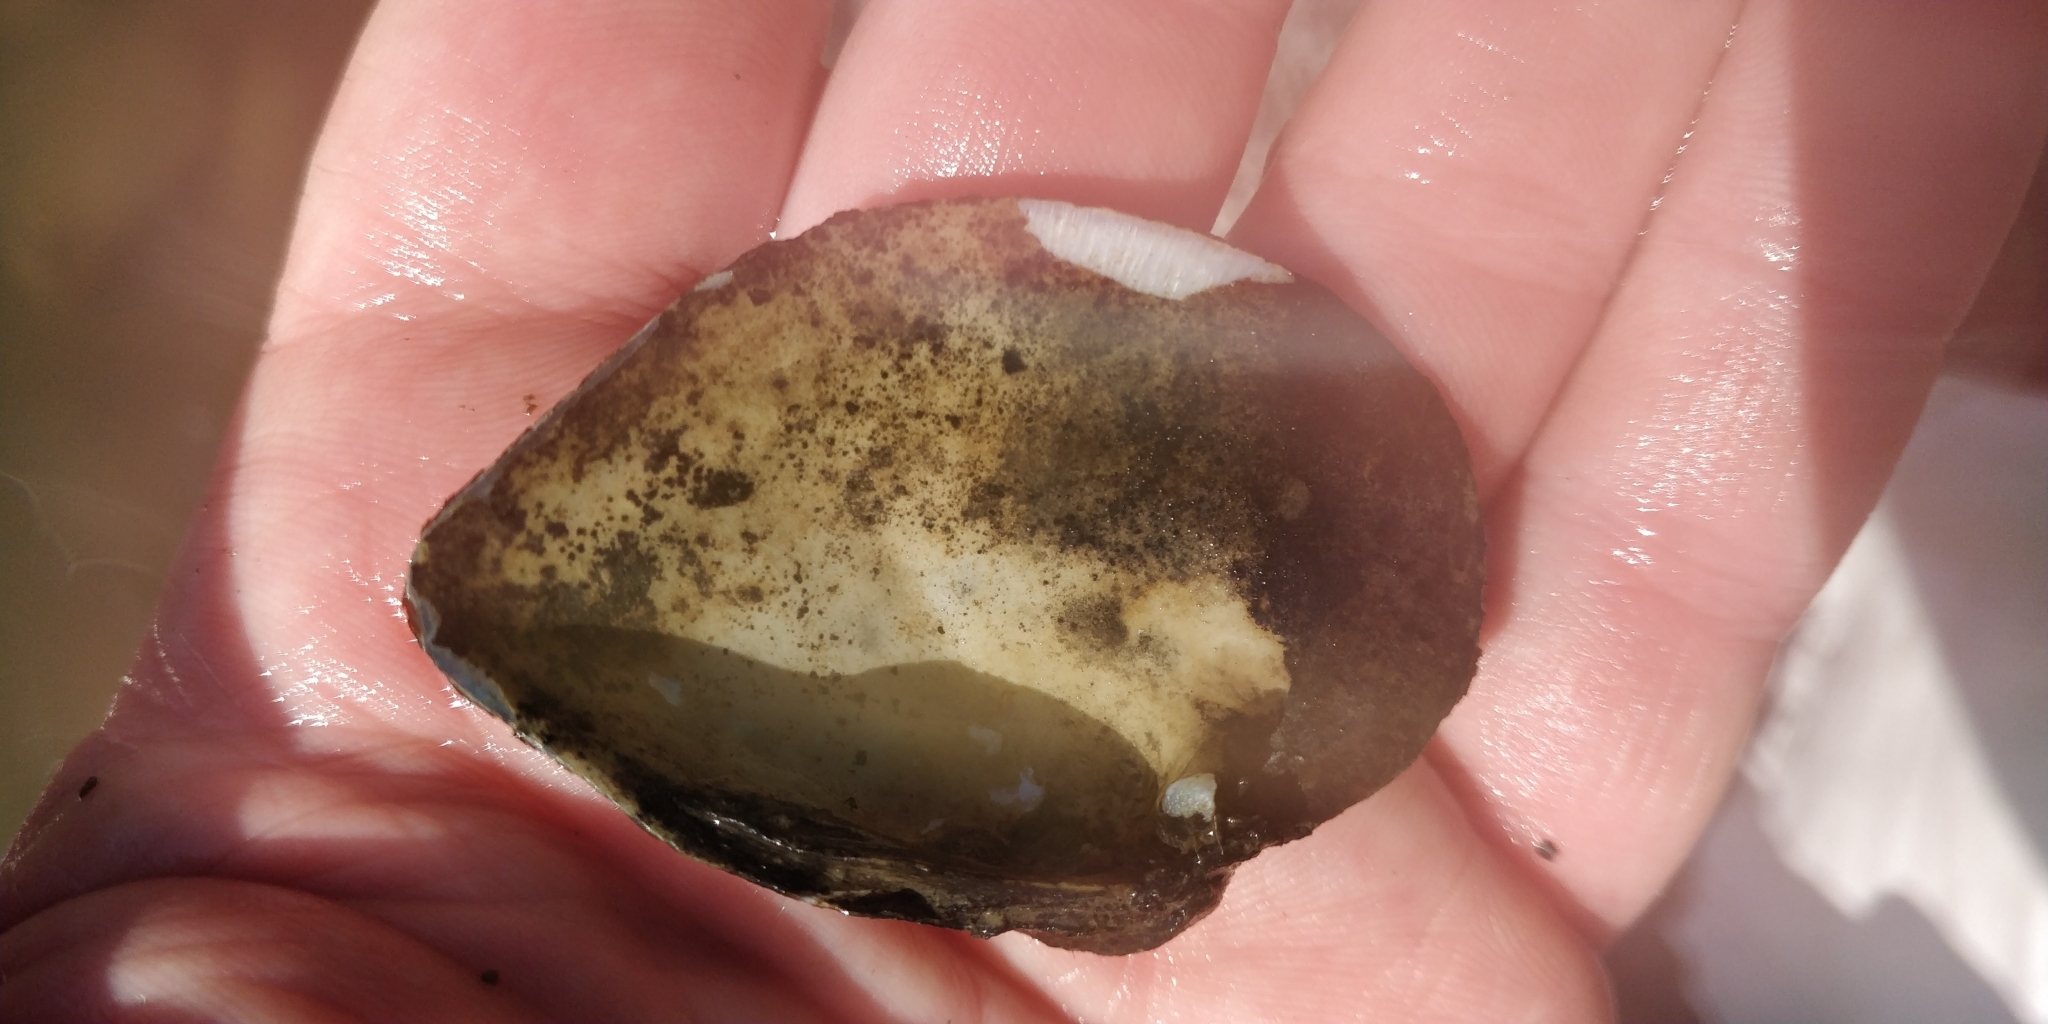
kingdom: Animalia
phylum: Mollusca
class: Bivalvia
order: Unionida
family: Unionidae
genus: Truncilla
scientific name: Truncilla truncata
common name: Deertoe
